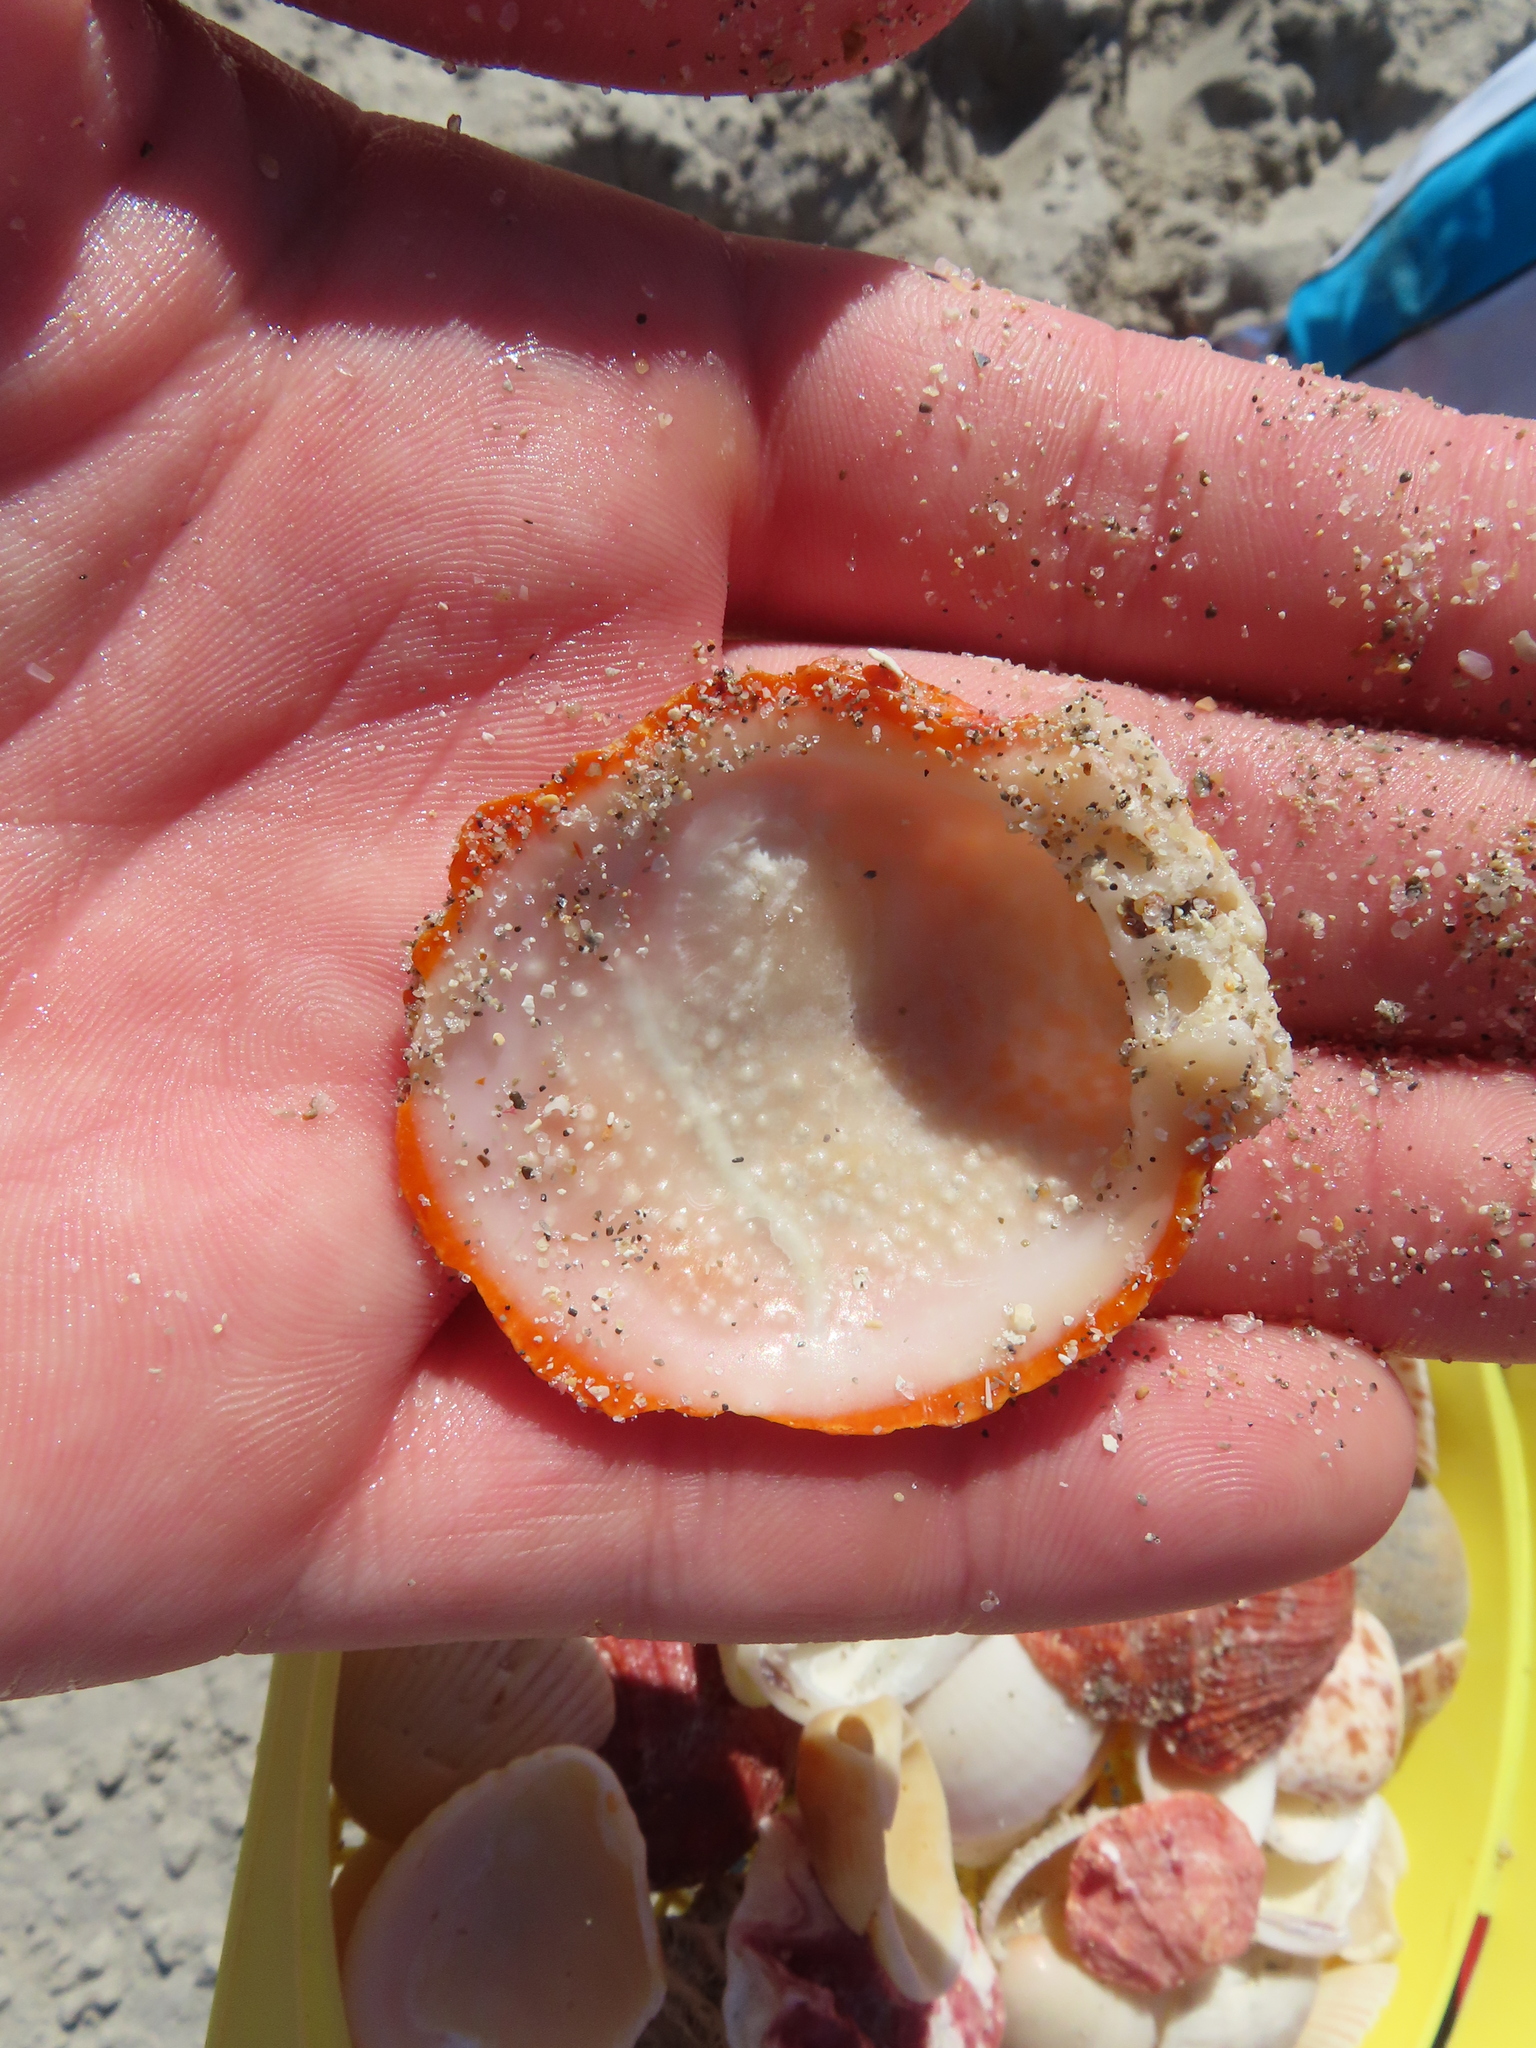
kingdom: Animalia
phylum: Mollusca
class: Bivalvia
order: Pectinida
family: Spondylidae
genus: Spondylus
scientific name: Spondylus tenuis
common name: Digitate thorny oyster
